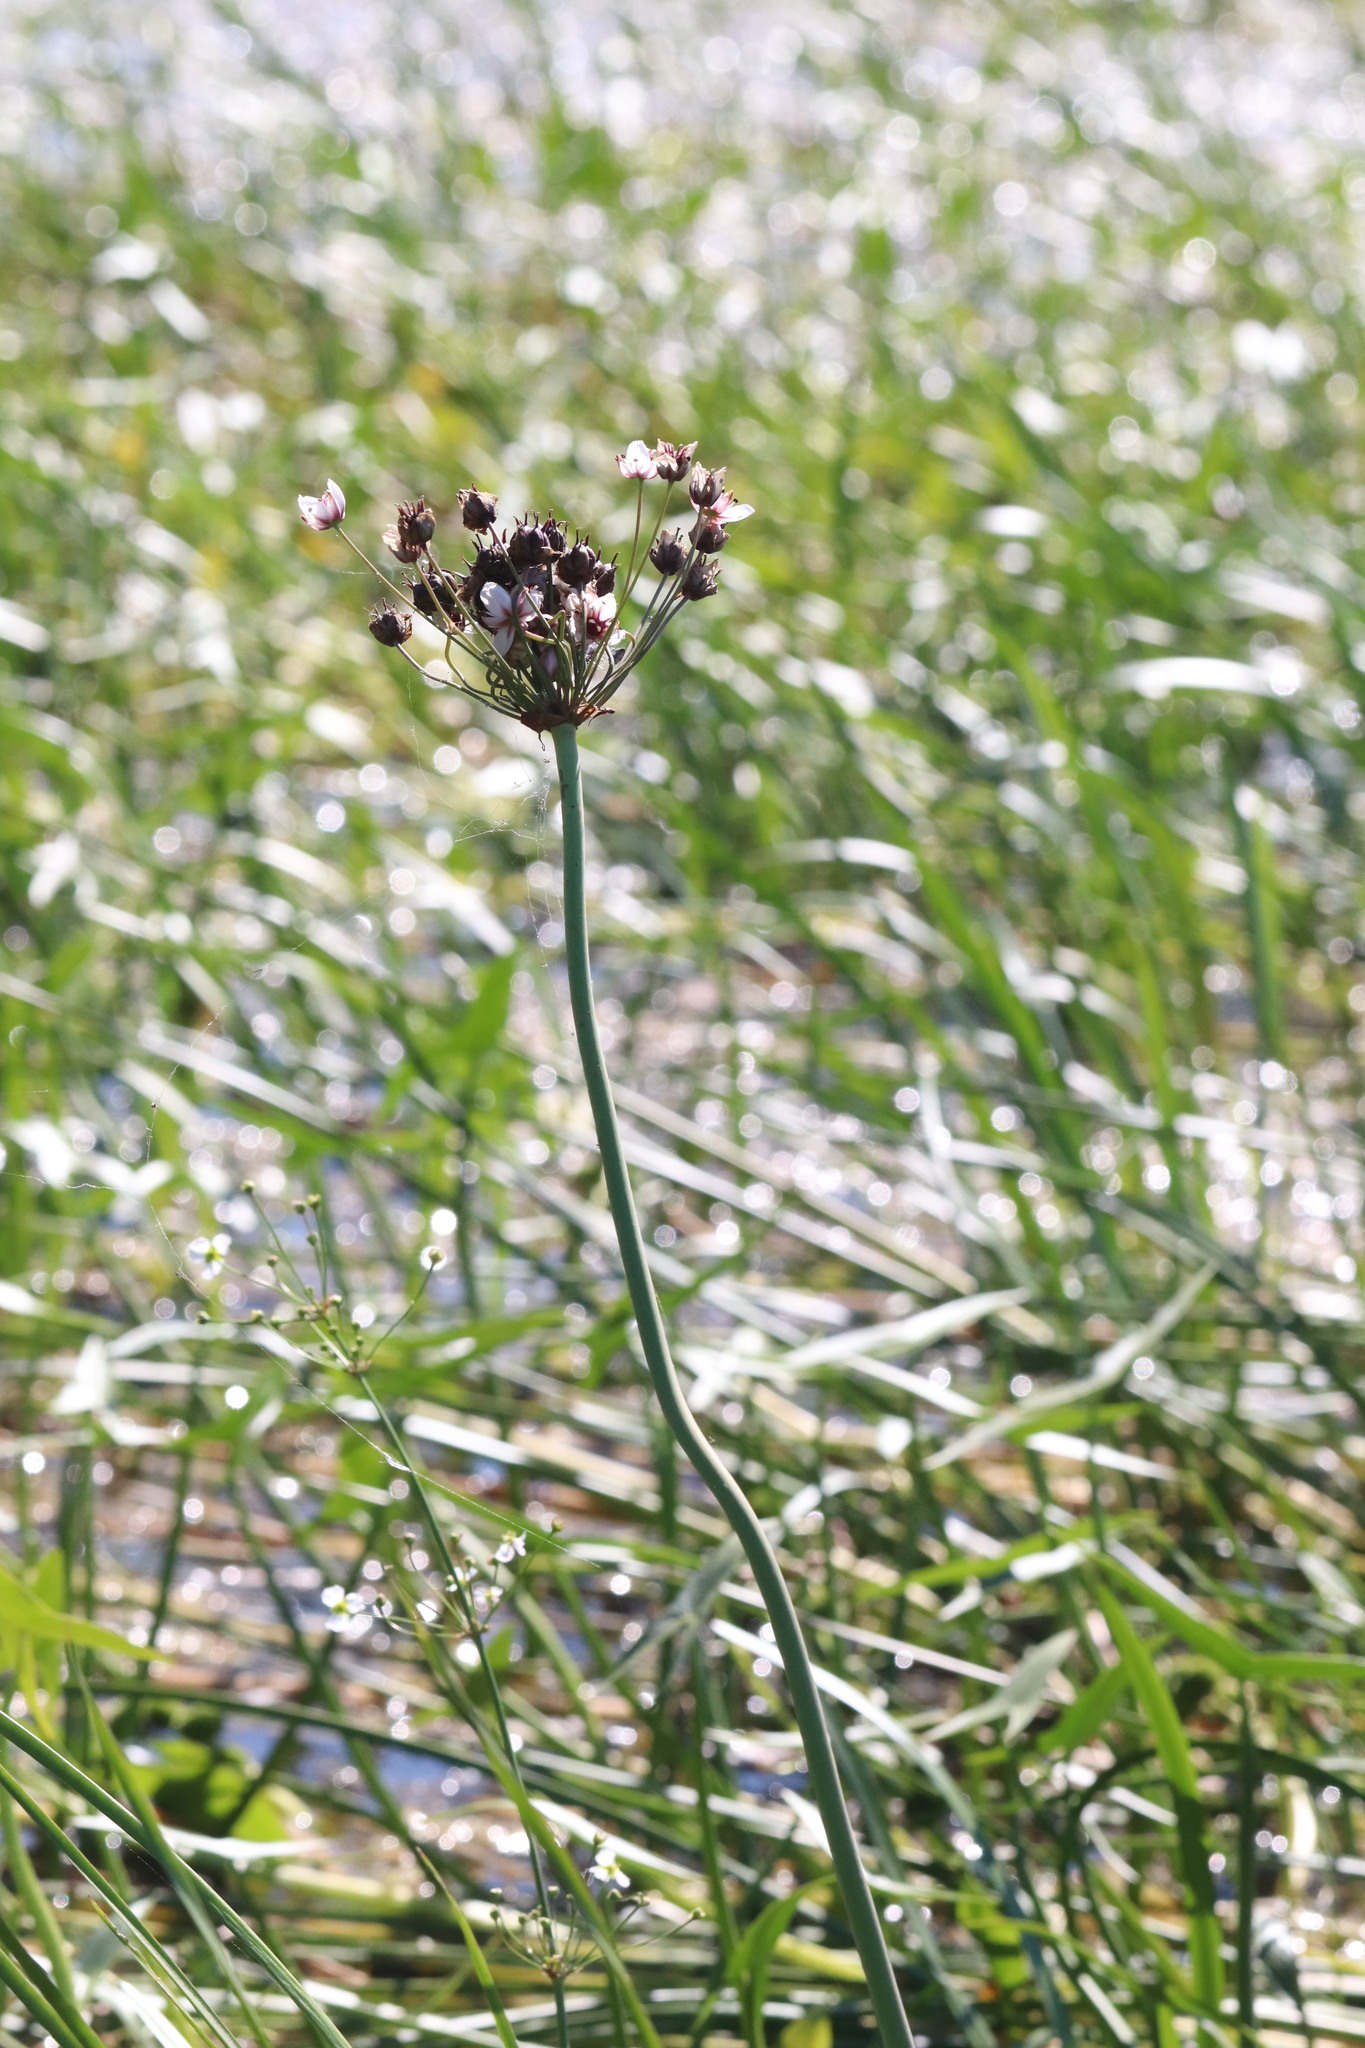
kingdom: Plantae
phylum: Tracheophyta
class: Liliopsida
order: Alismatales
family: Butomaceae
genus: Butomus
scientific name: Butomus umbellatus
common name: Flowering-rush
